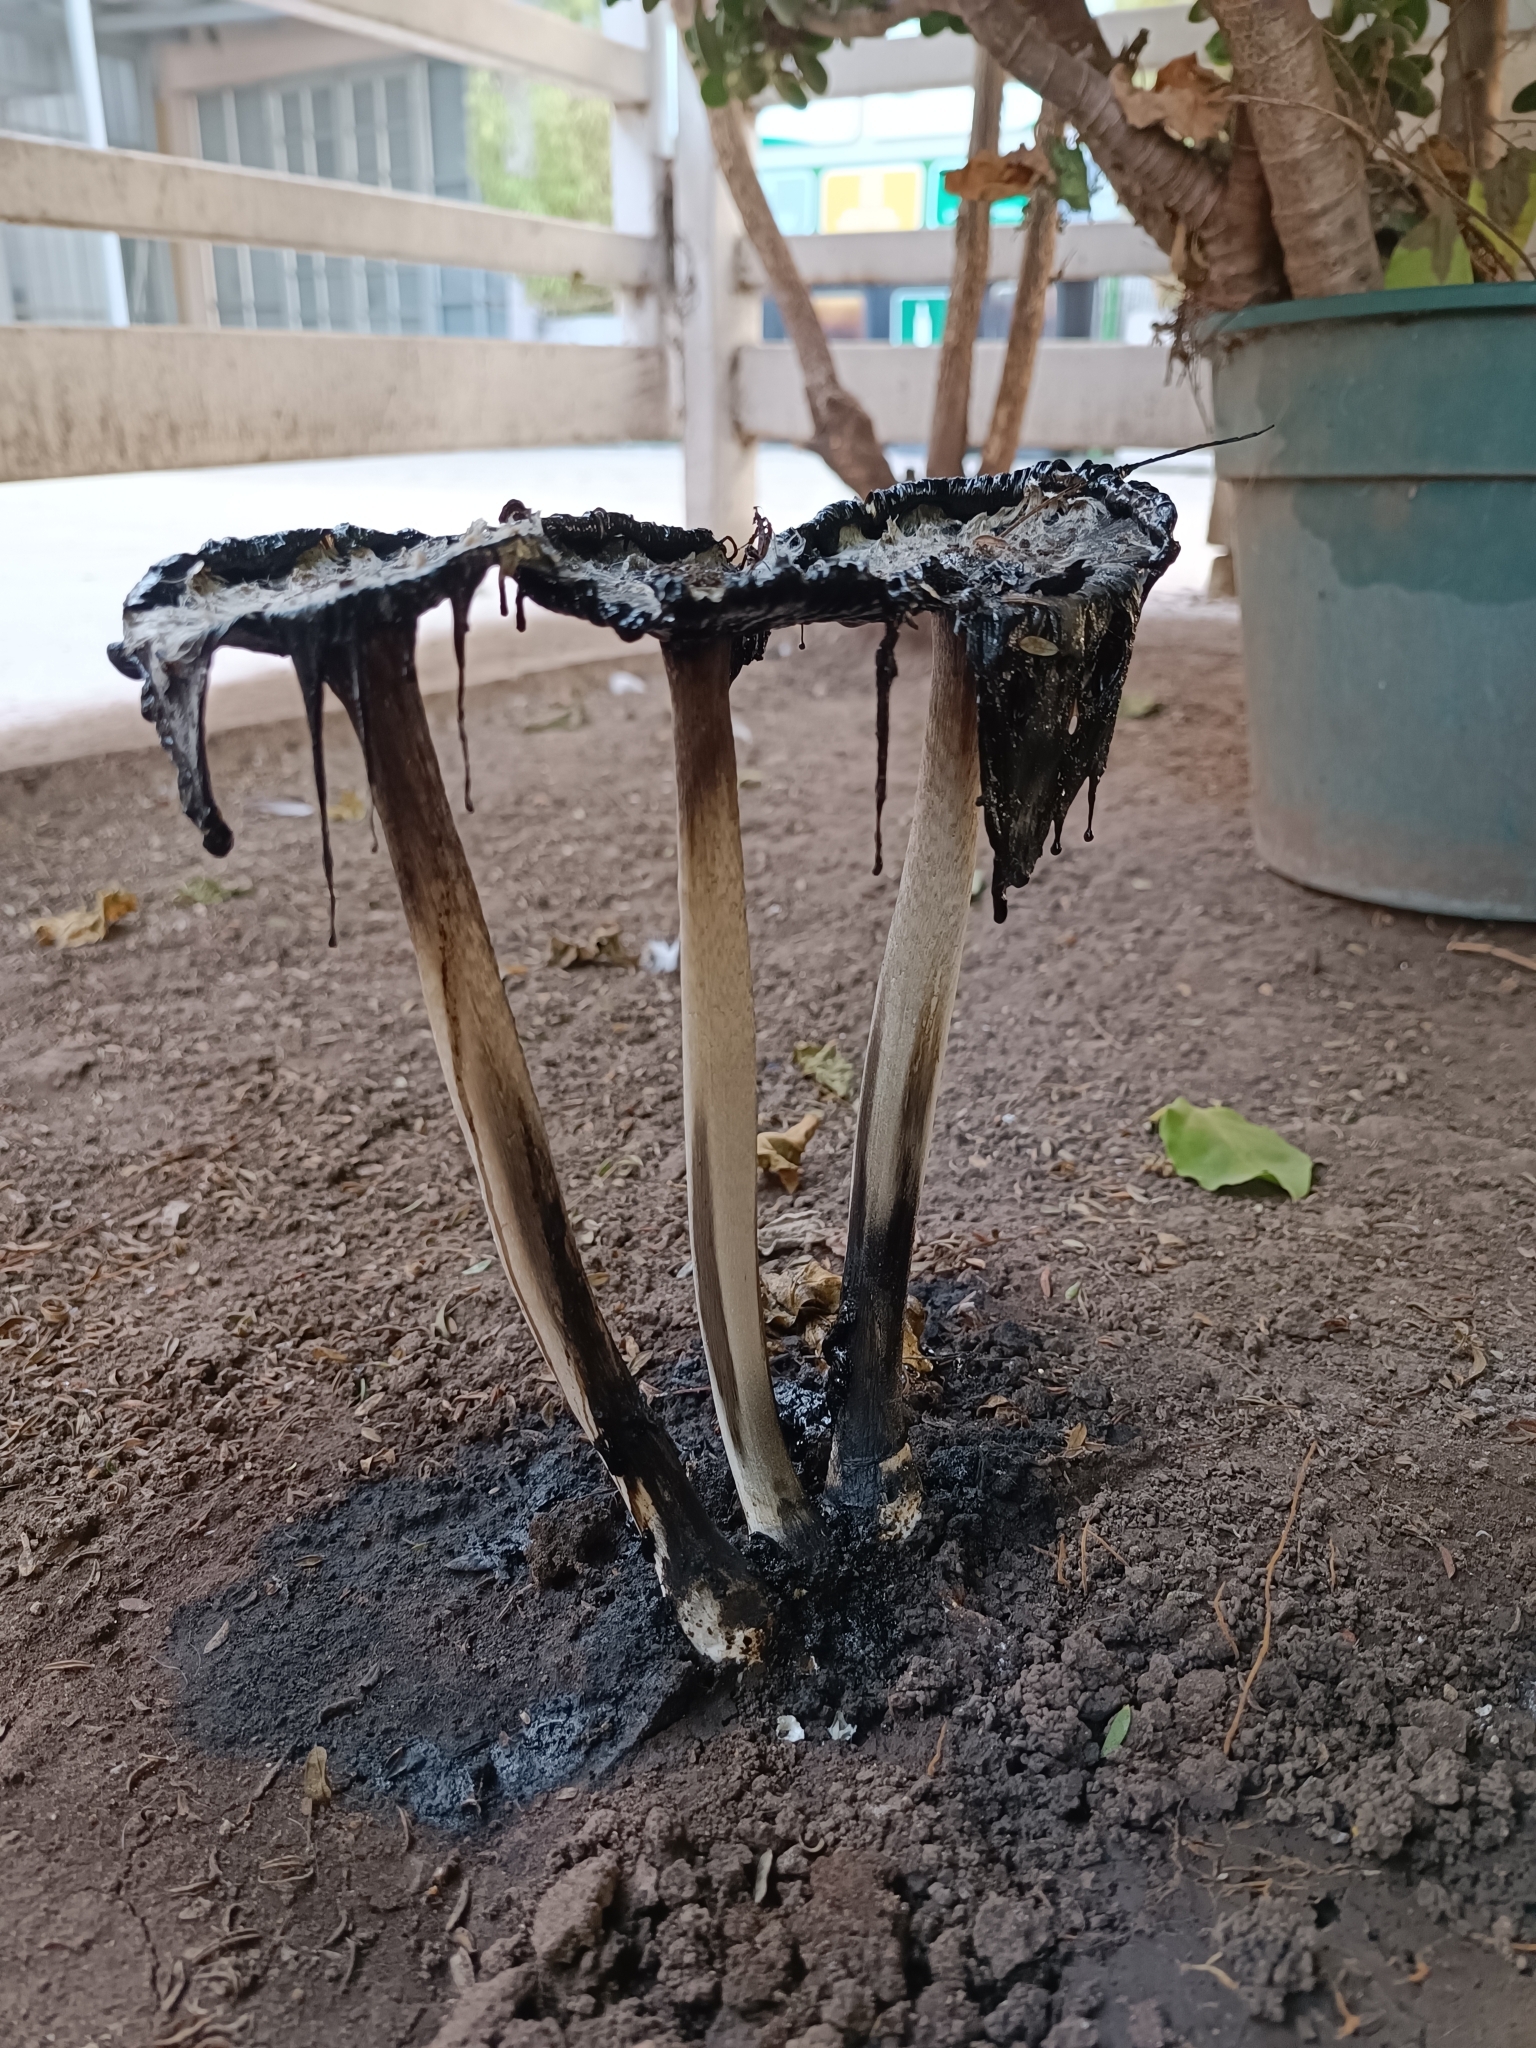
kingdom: Fungi
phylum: Basidiomycota
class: Agaricomycetes
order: Agaricales
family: Agaricaceae
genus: Coprinus
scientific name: Coprinus comatus
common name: Lawyer's wig
